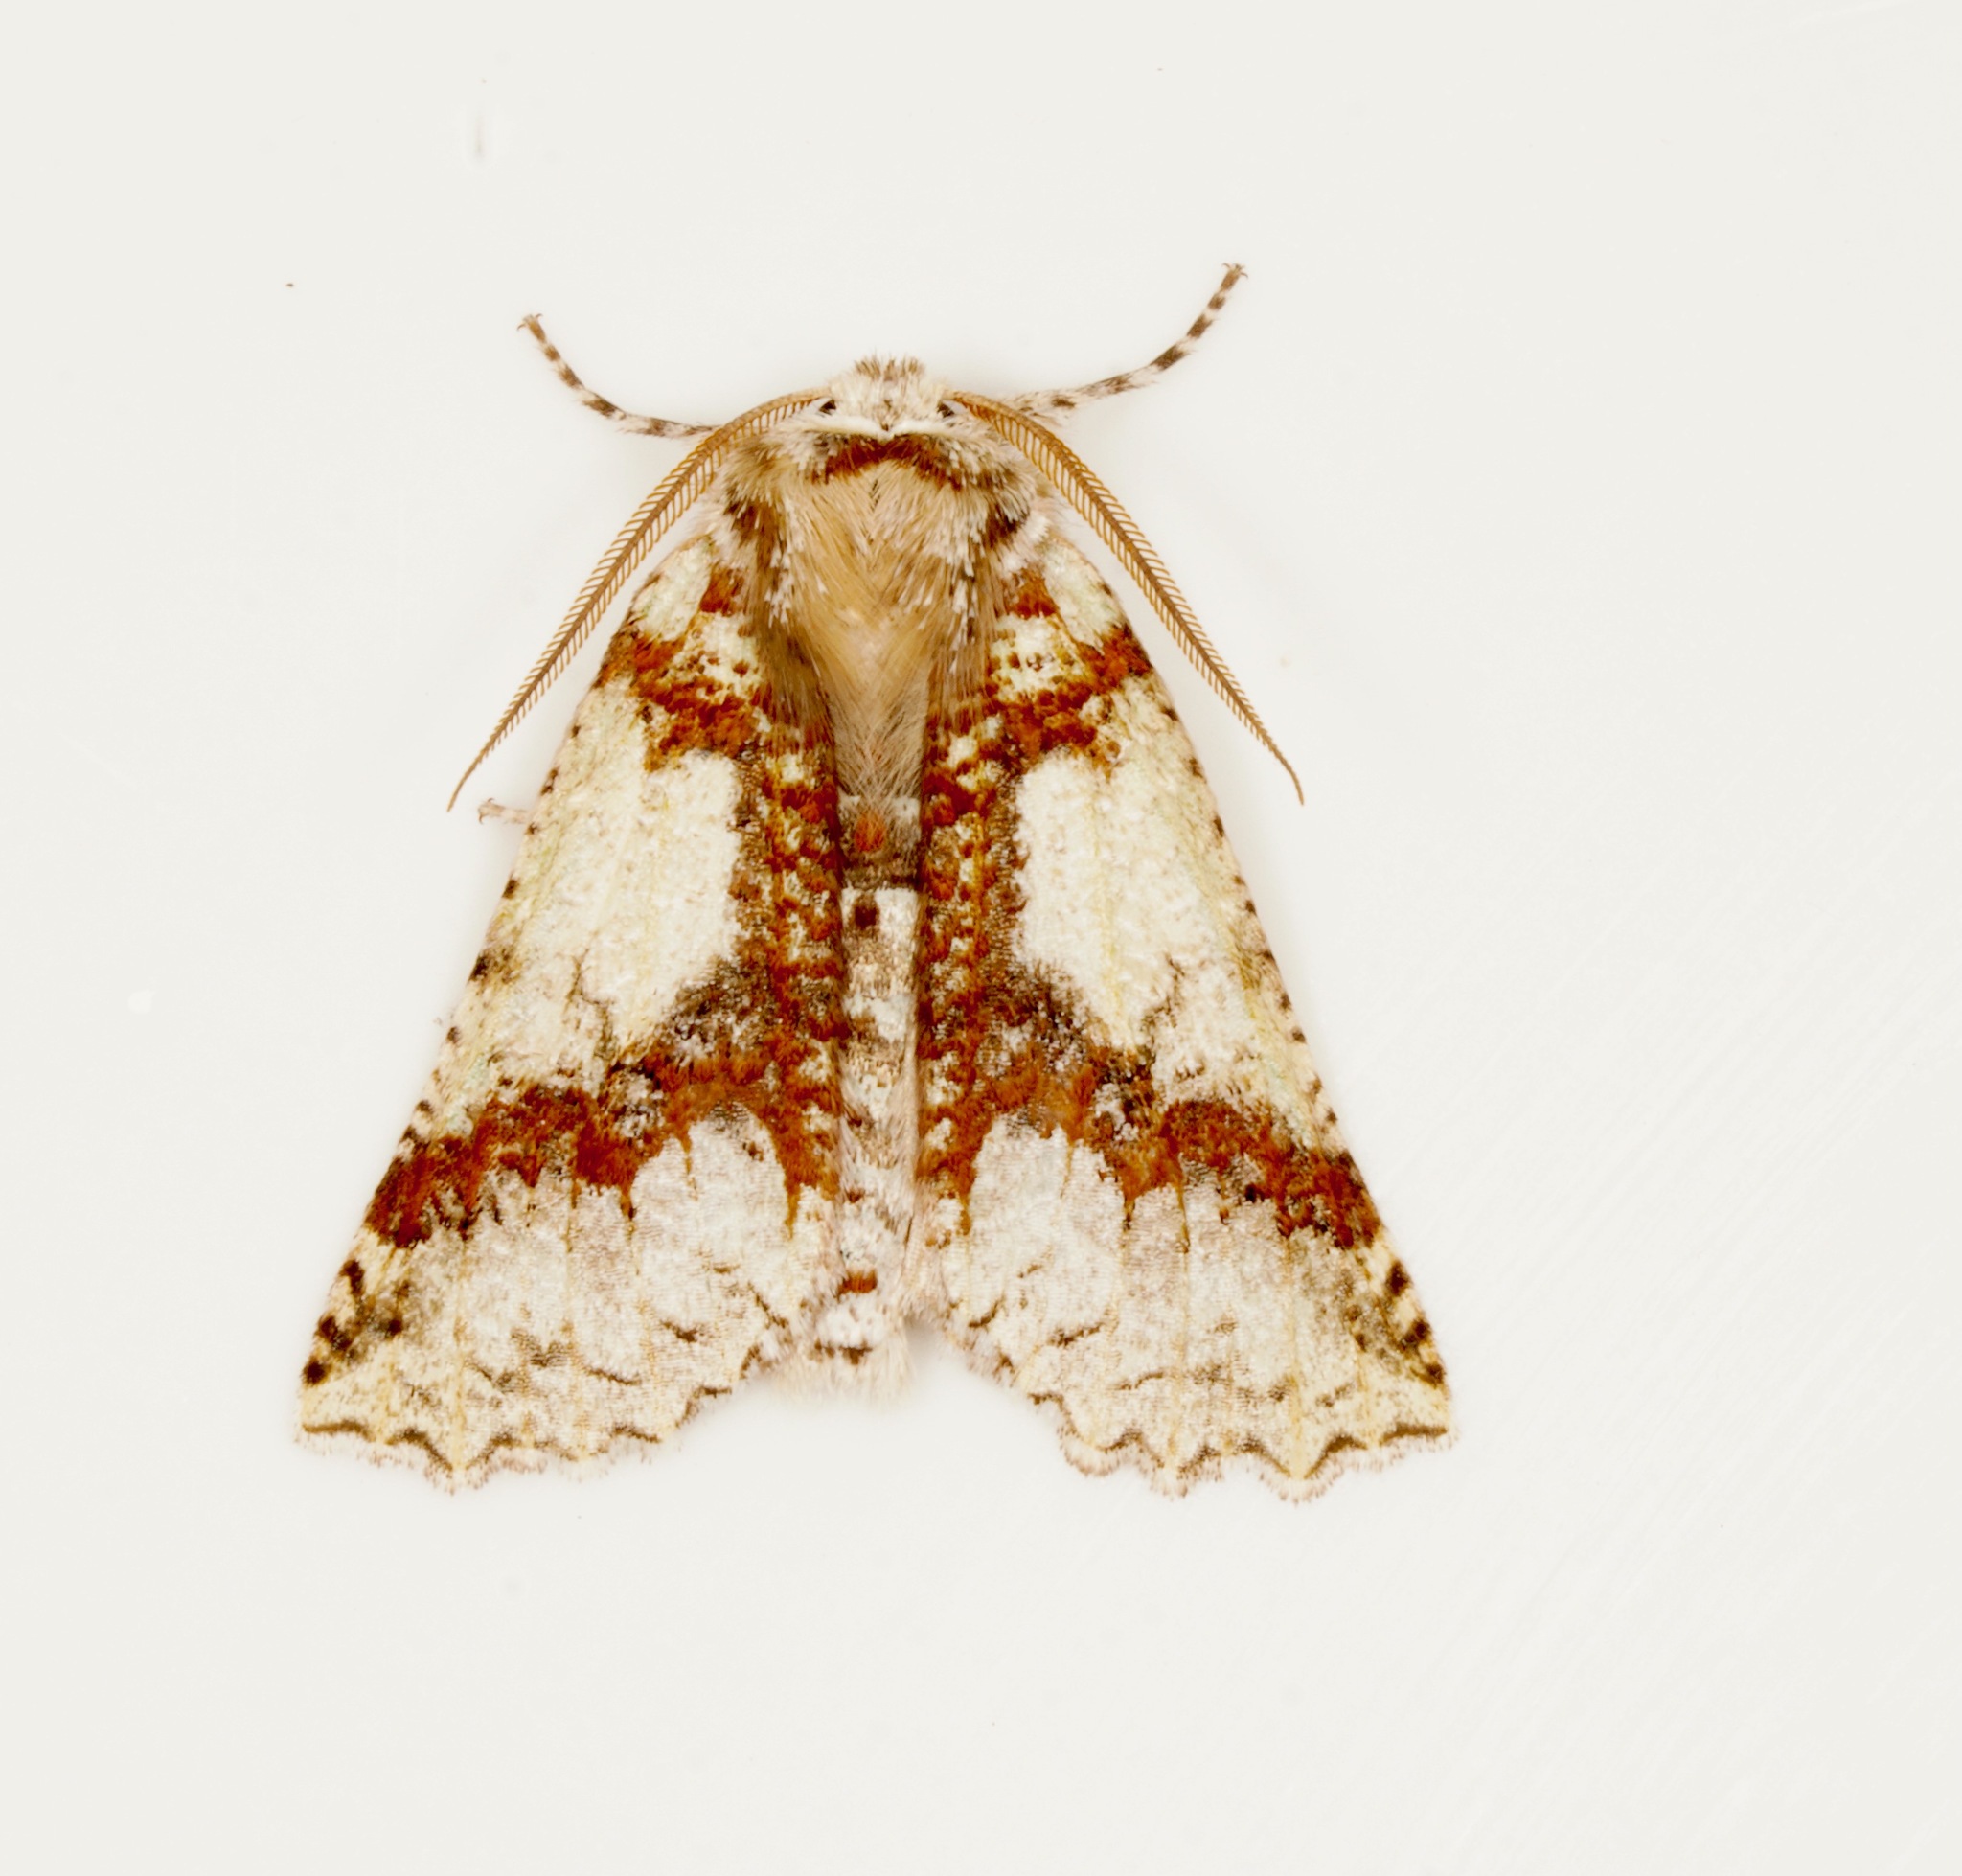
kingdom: Animalia
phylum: Arthropoda
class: Insecta
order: Lepidoptera
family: Geometridae
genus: Declana
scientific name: Declana floccosa
